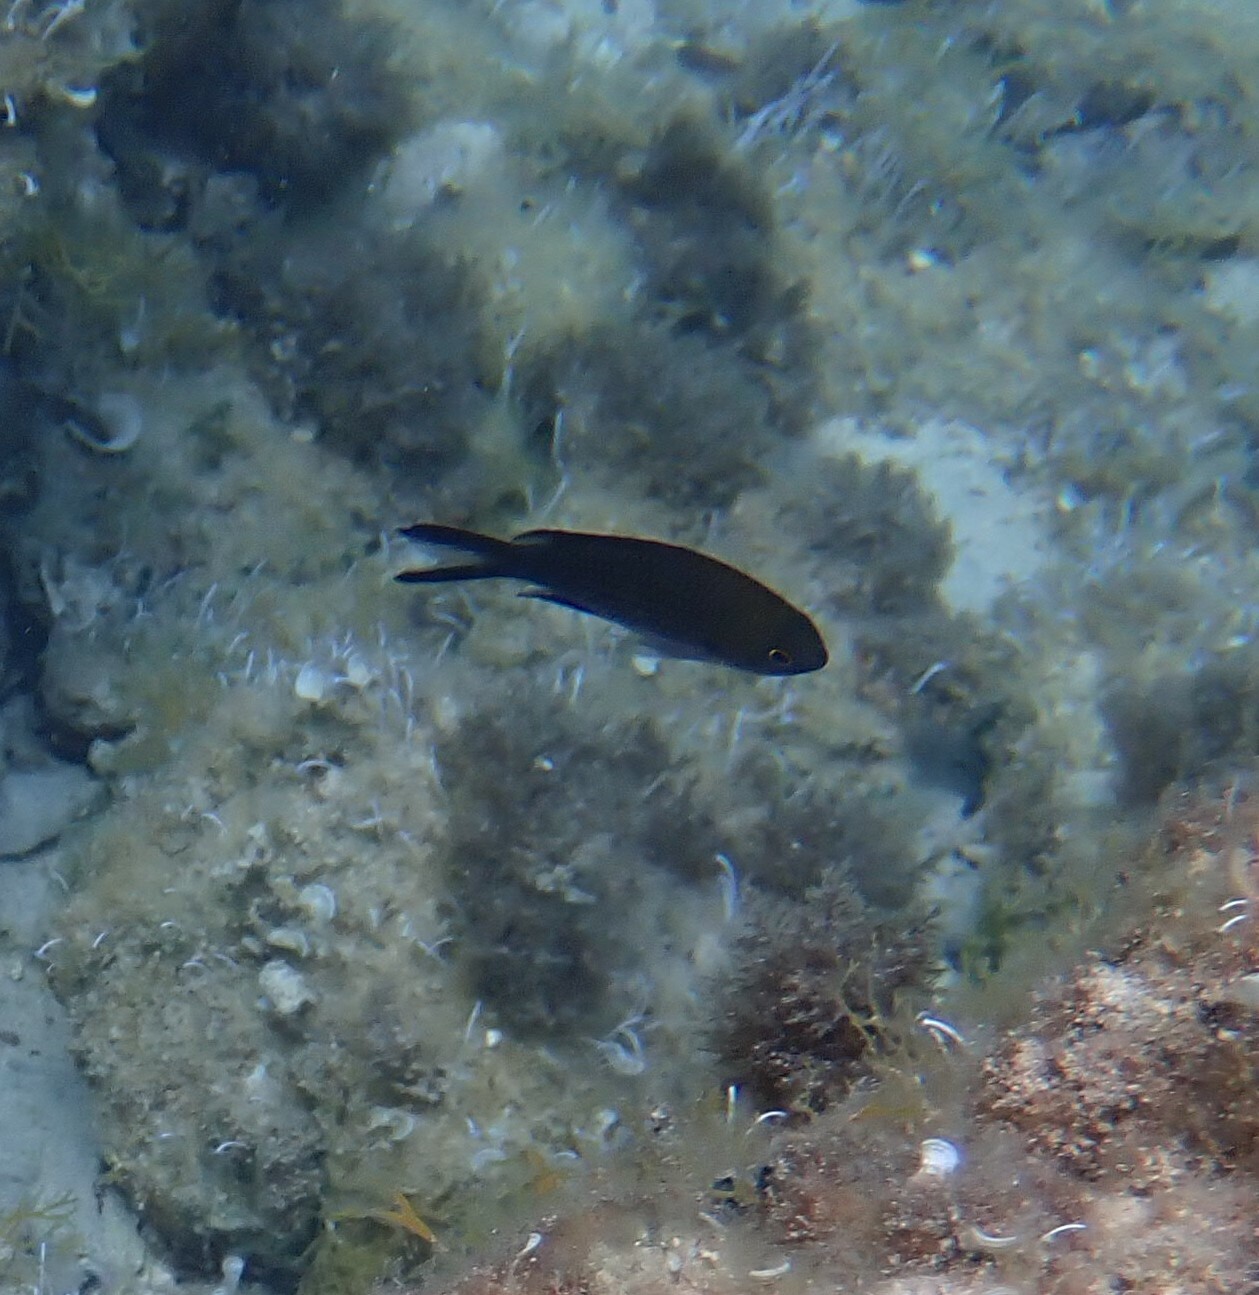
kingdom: Animalia
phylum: Chordata
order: Perciformes
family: Pomacentridae
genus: Chromis
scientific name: Chromis chromis
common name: Damselfish
